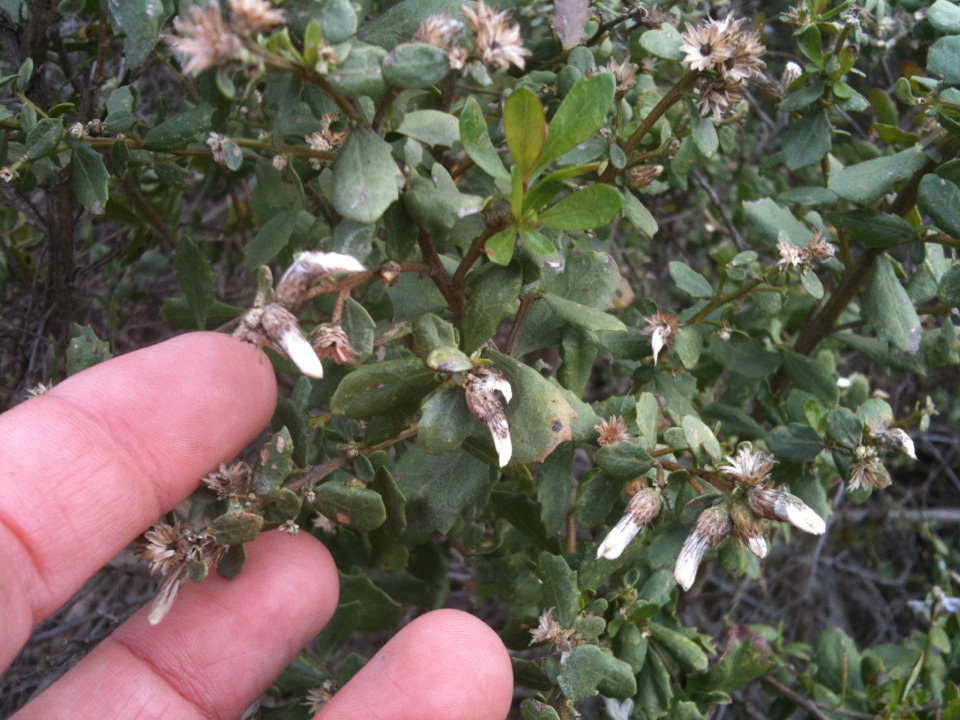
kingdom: Plantae
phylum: Tracheophyta
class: Magnoliopsida
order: Asterales
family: Asteraceae
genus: Baccharis
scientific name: Baccharis pilularis
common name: Coyotebrush
